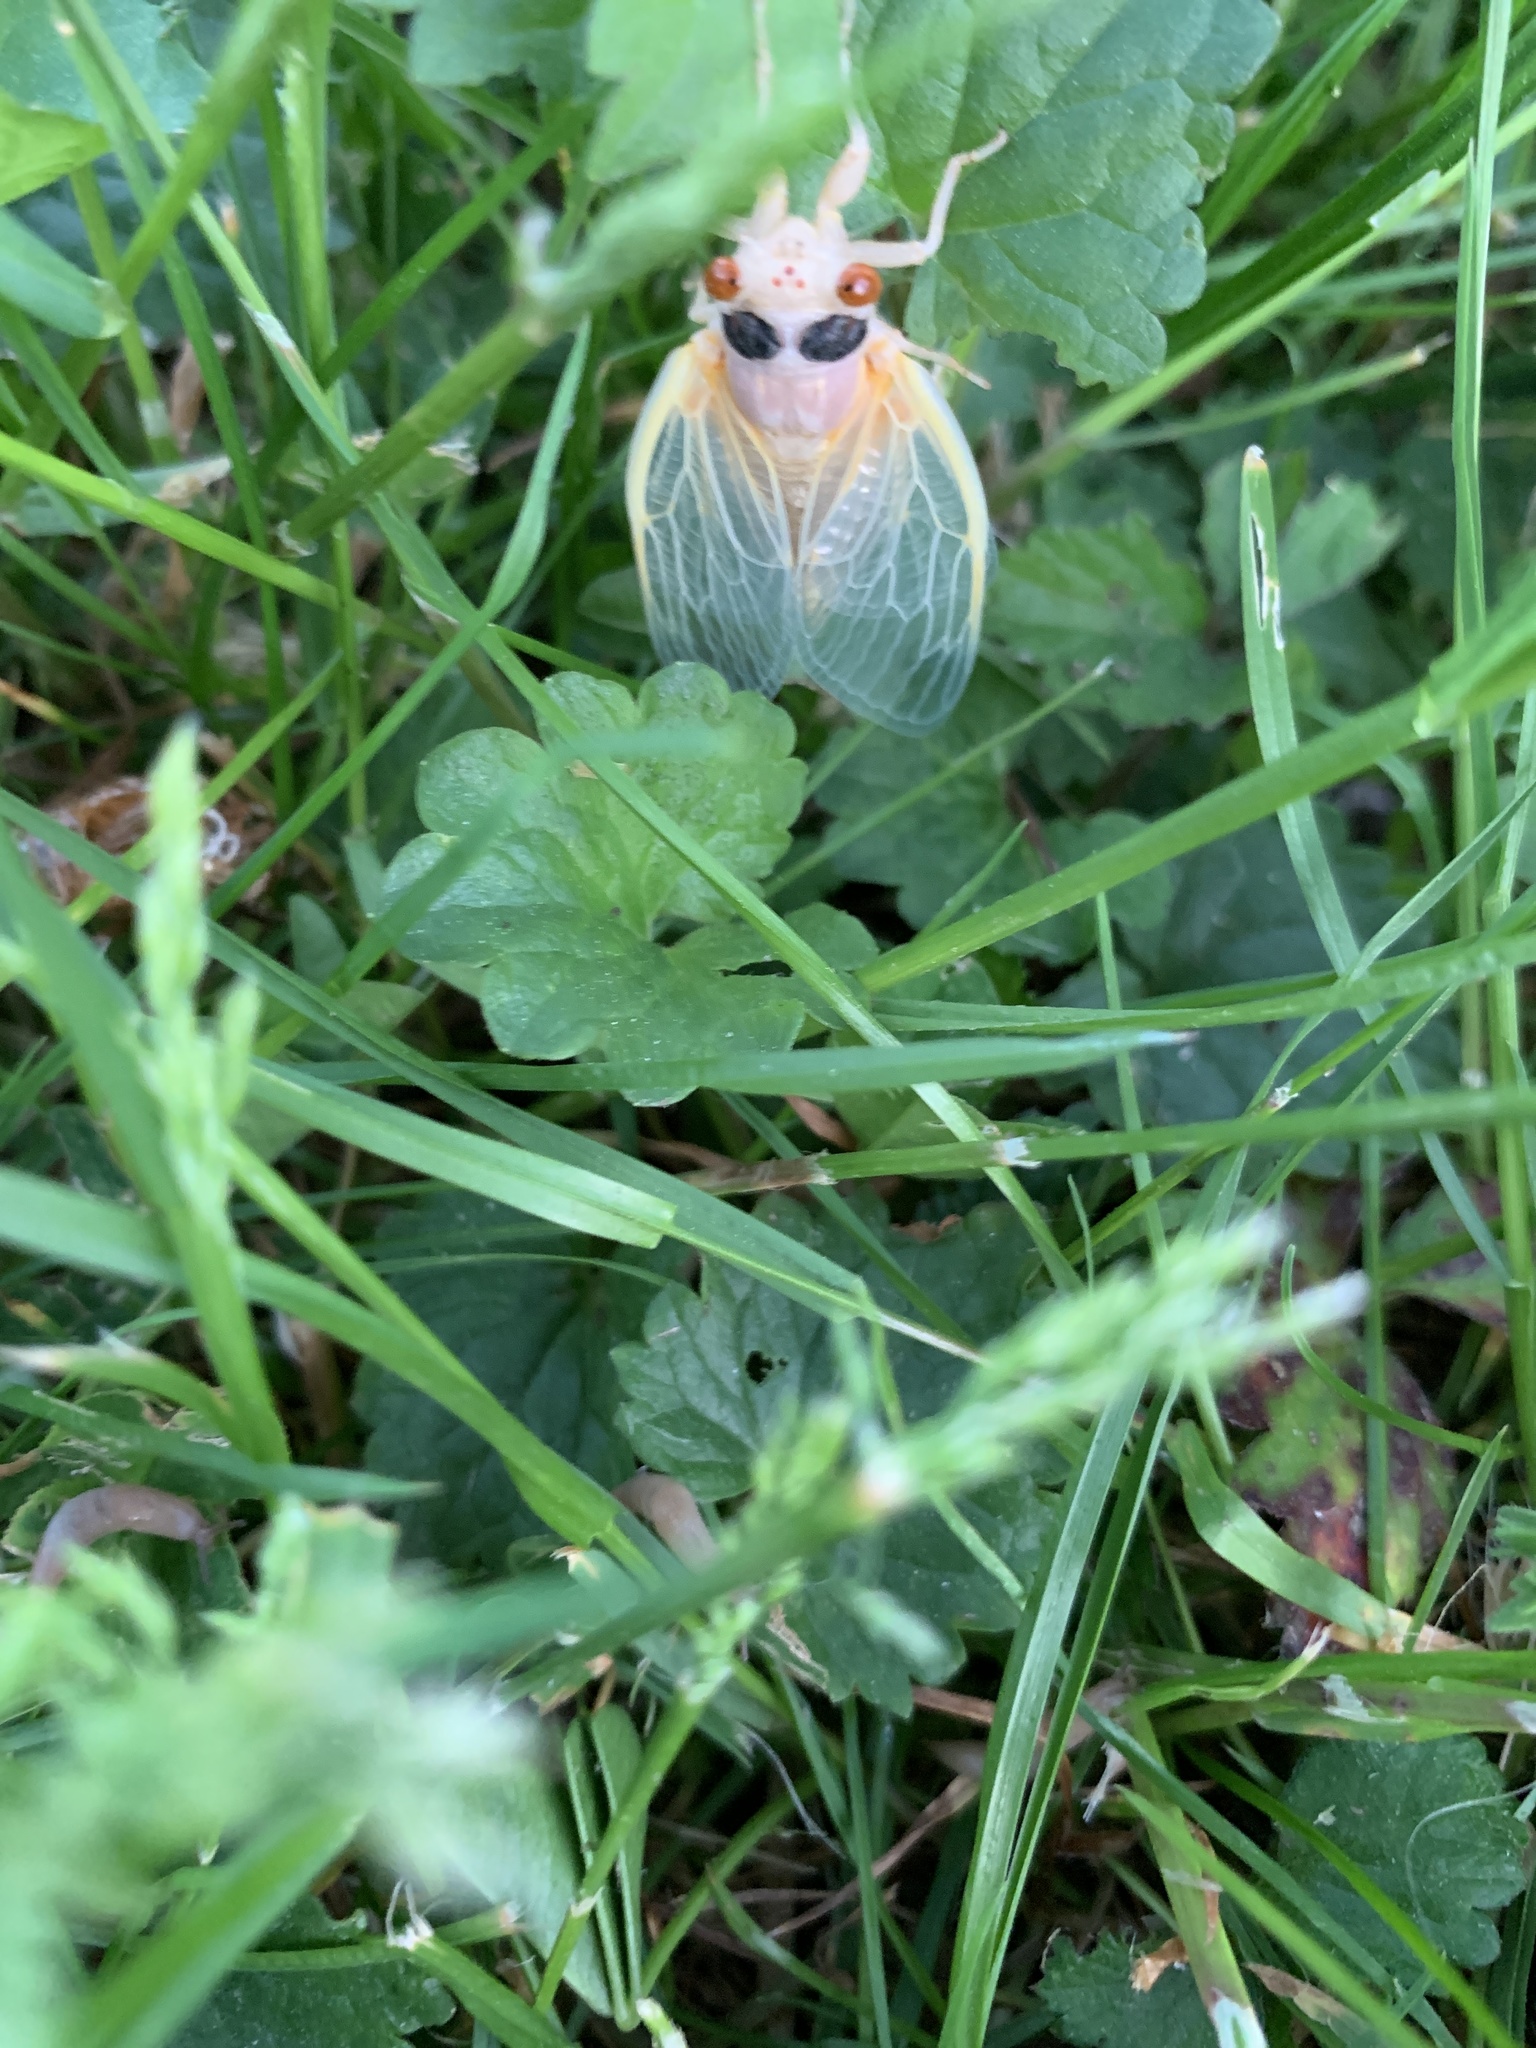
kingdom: Animalia
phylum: Arthropoda
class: Insecta
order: Hemiptera
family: Cicadidae
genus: Magicicada
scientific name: Magicicada
